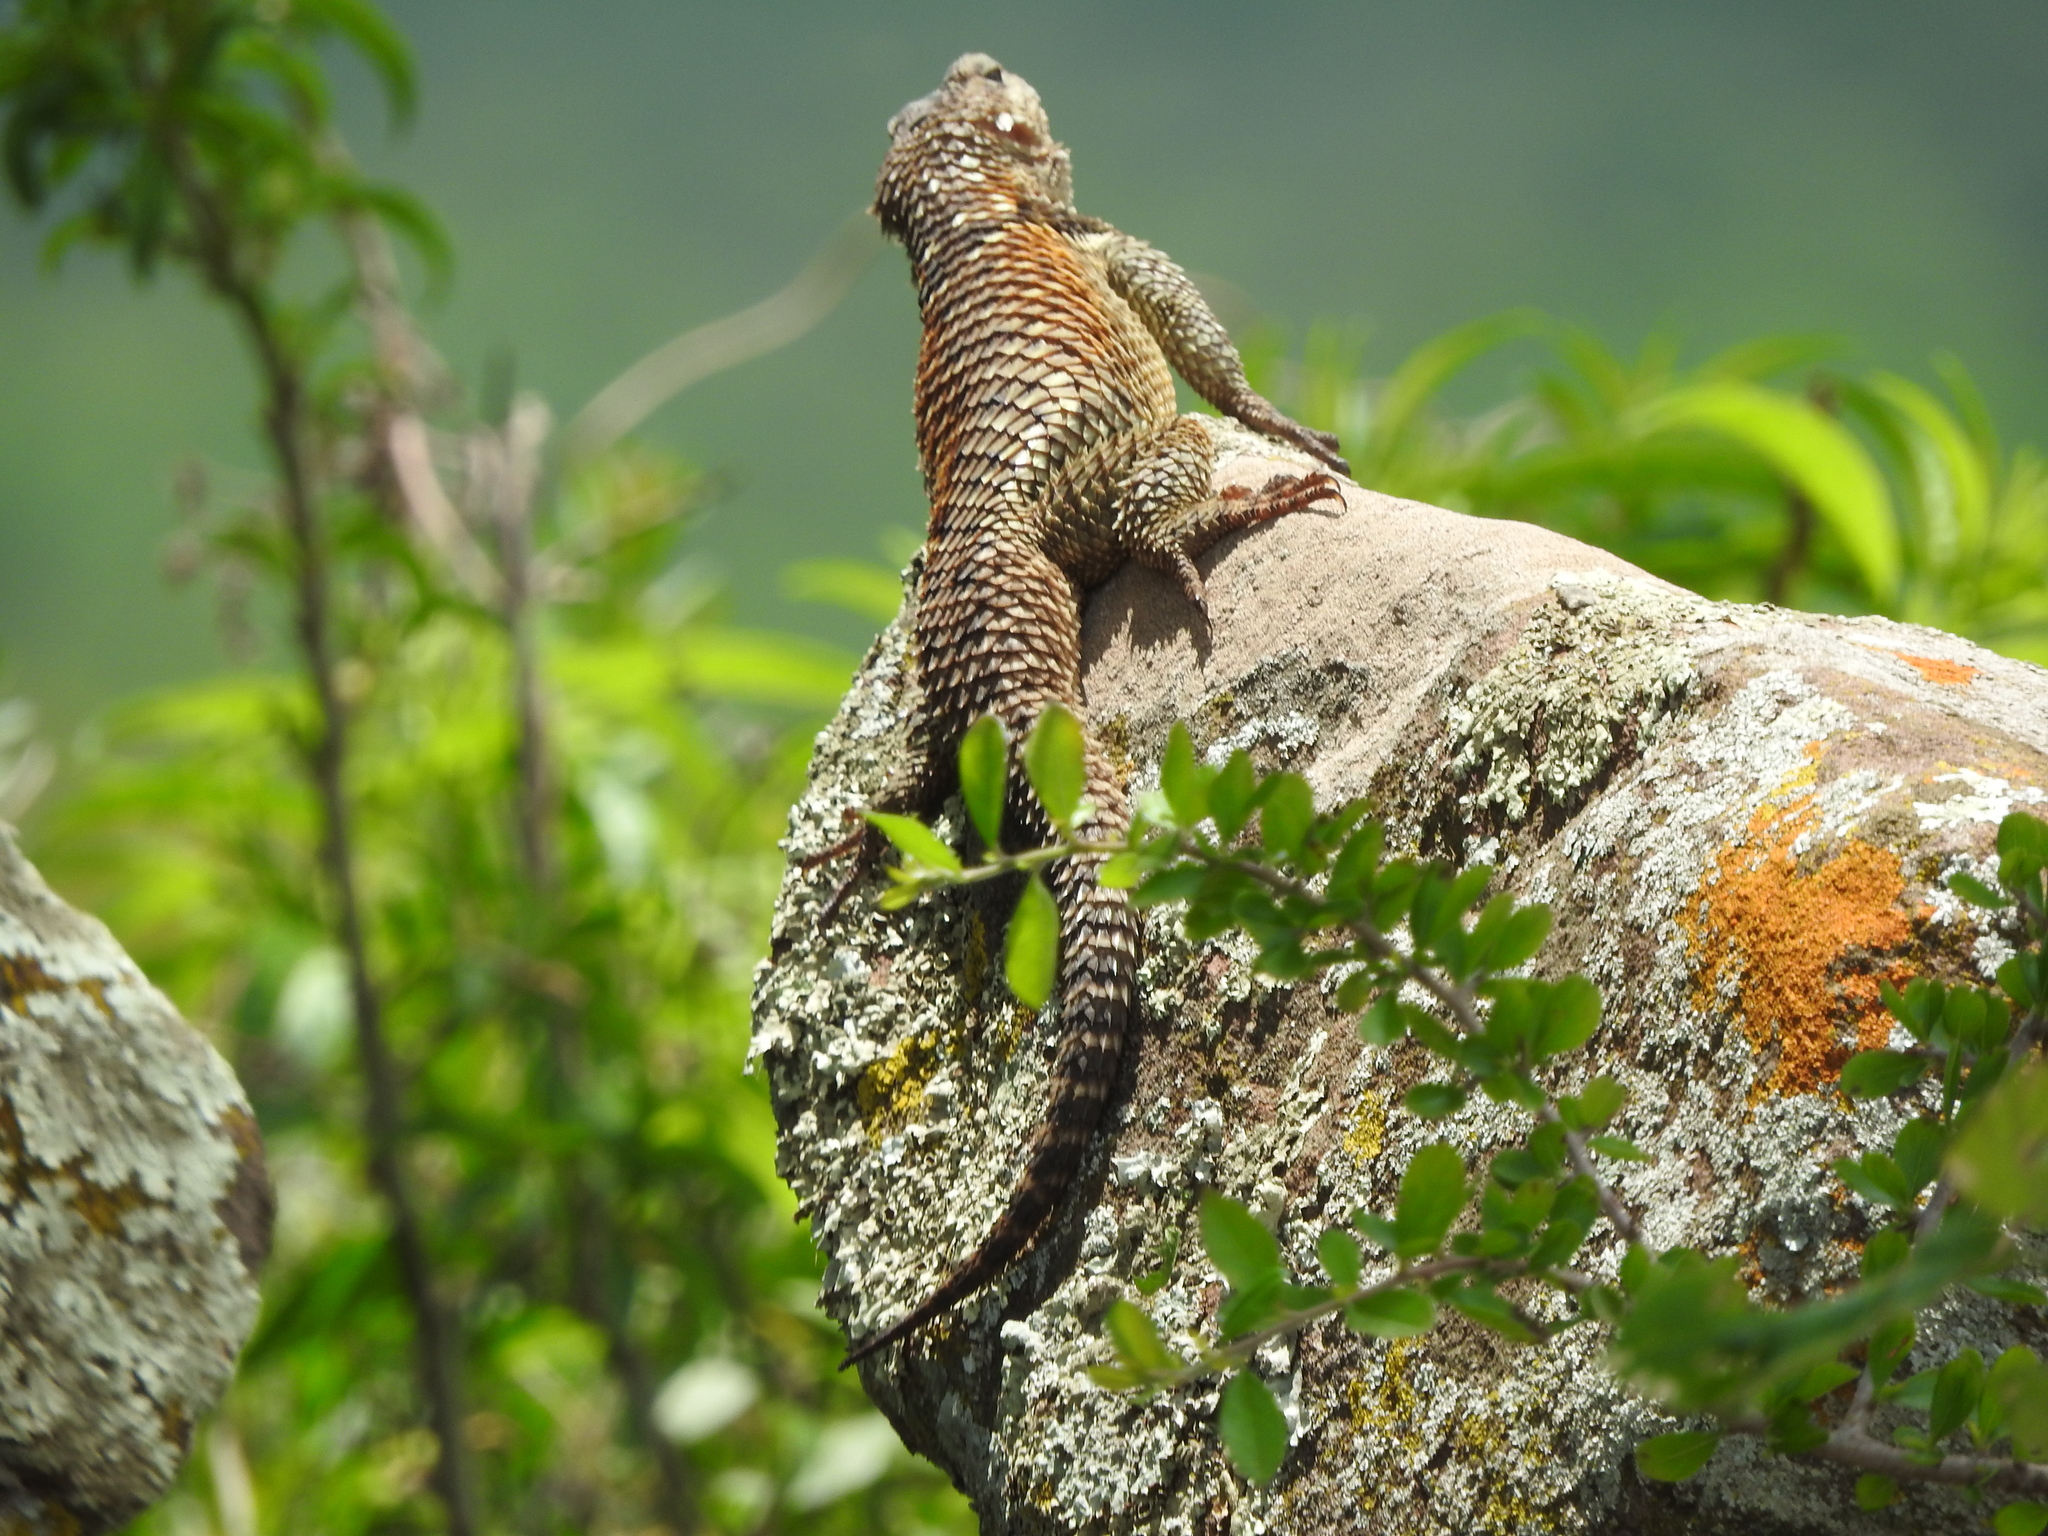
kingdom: Animalia
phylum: Chordata
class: Squamata
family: Phrynosomatidae
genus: Sceloporus
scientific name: Sceloporus torquatus
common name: Central plateau torquate lizard [melanogaster]
